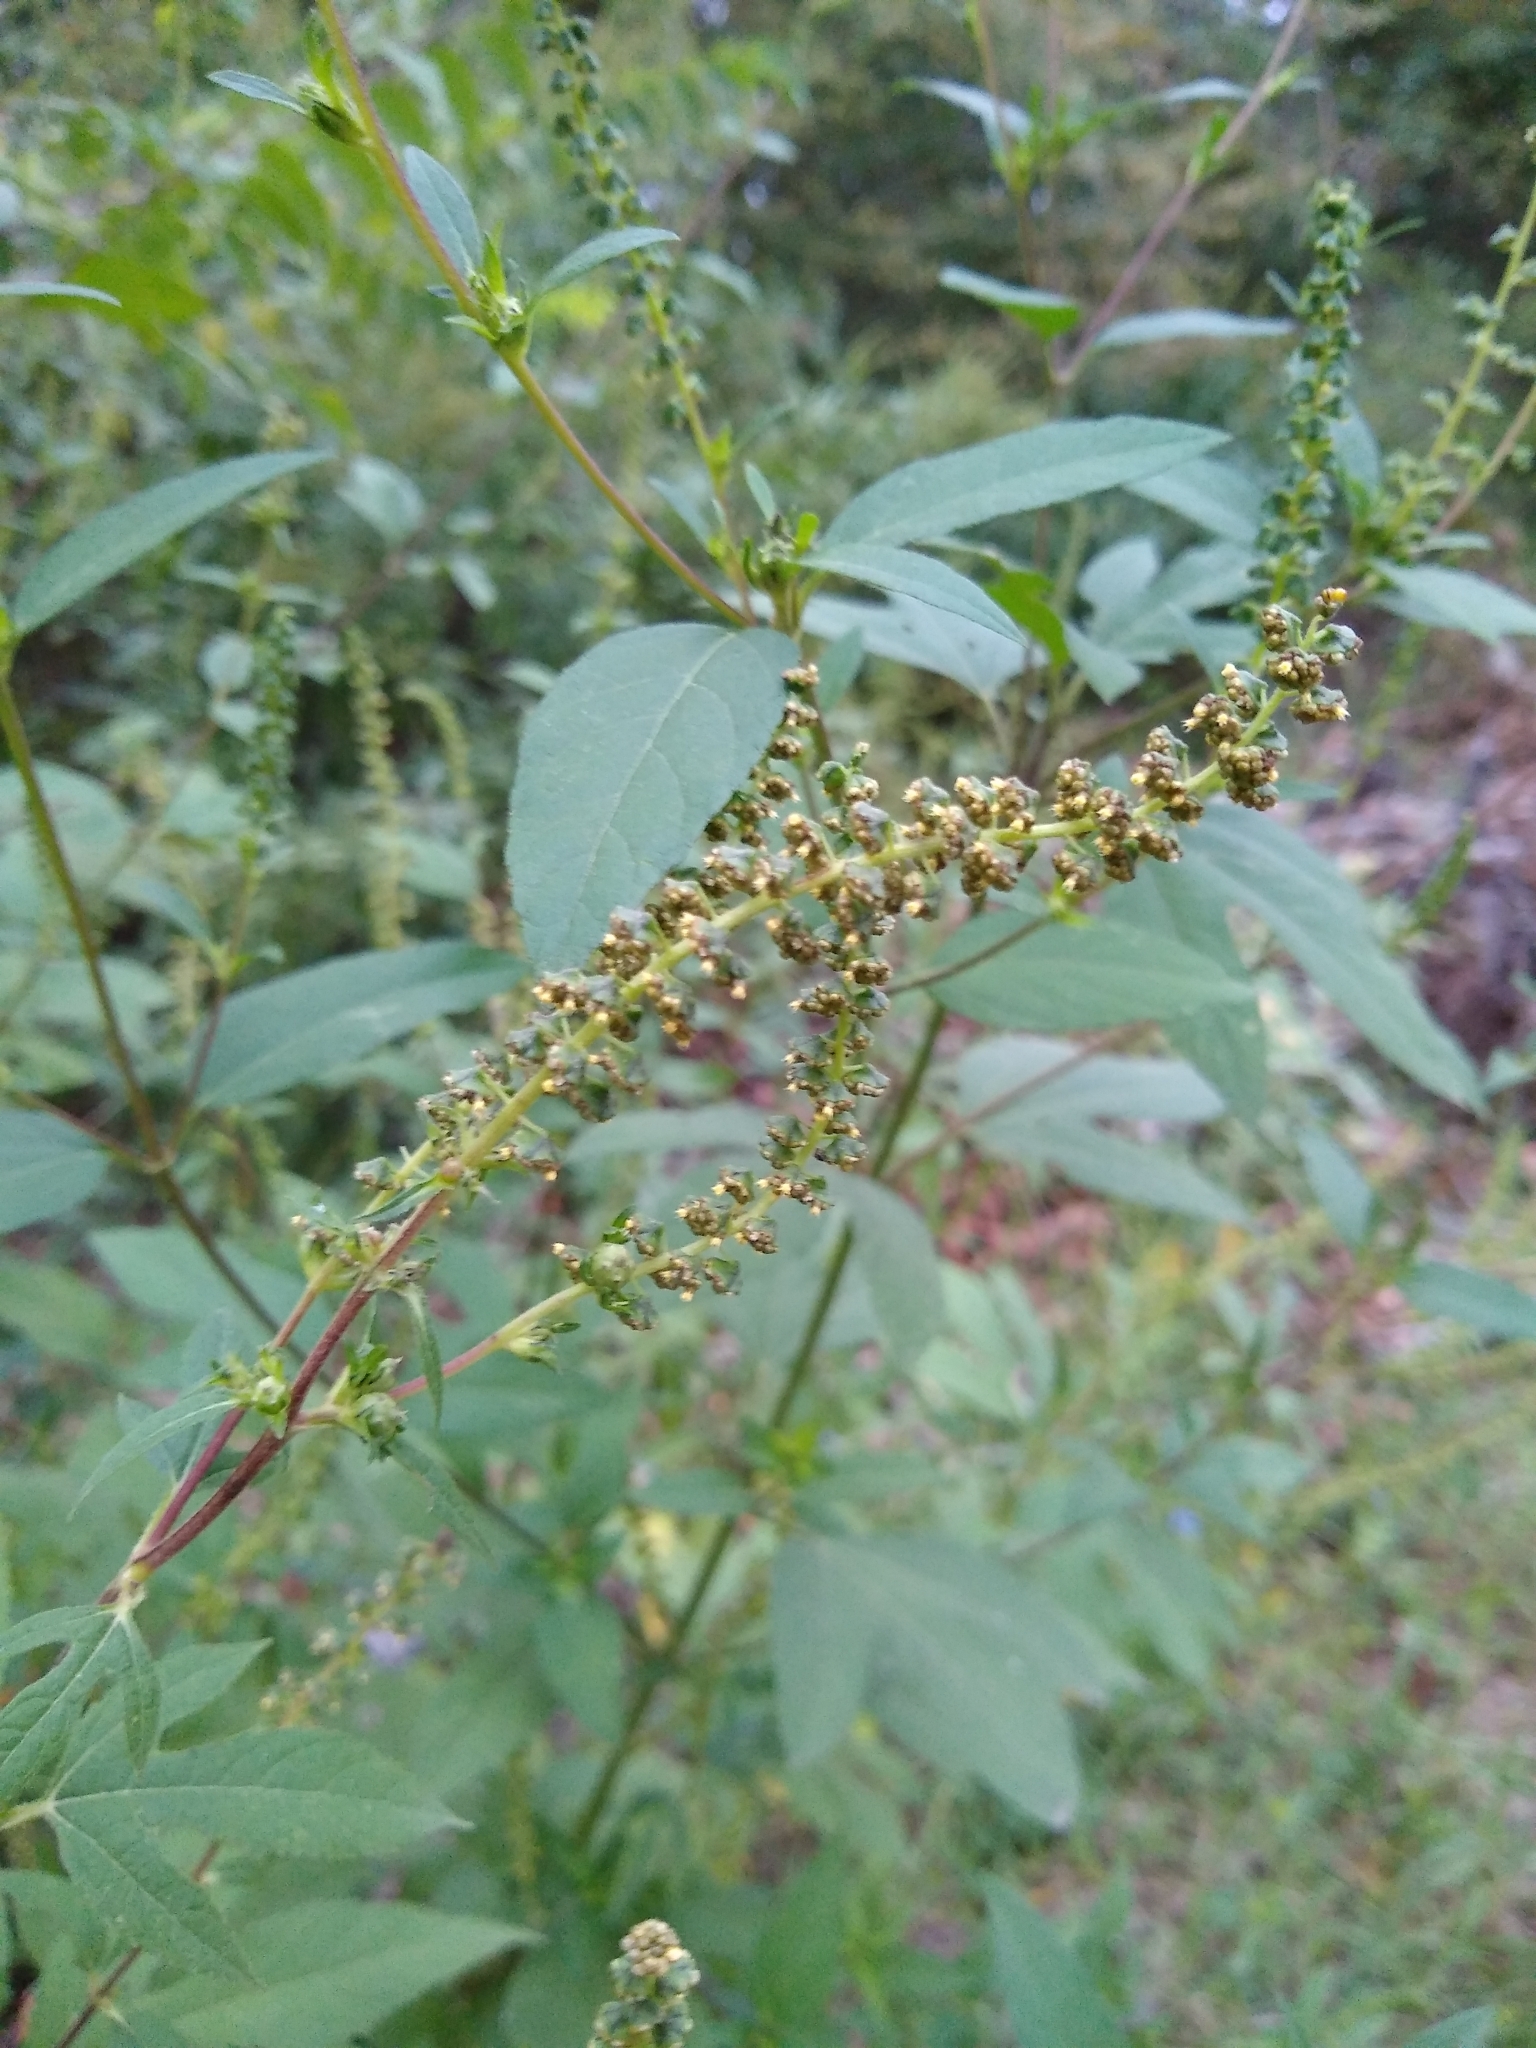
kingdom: Plantae
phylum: Tracheophyta
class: Magnoliopsida
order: Asterales
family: Asteraceae
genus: Ambrosia
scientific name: Ambrosia trifida
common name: Giant ragweed
